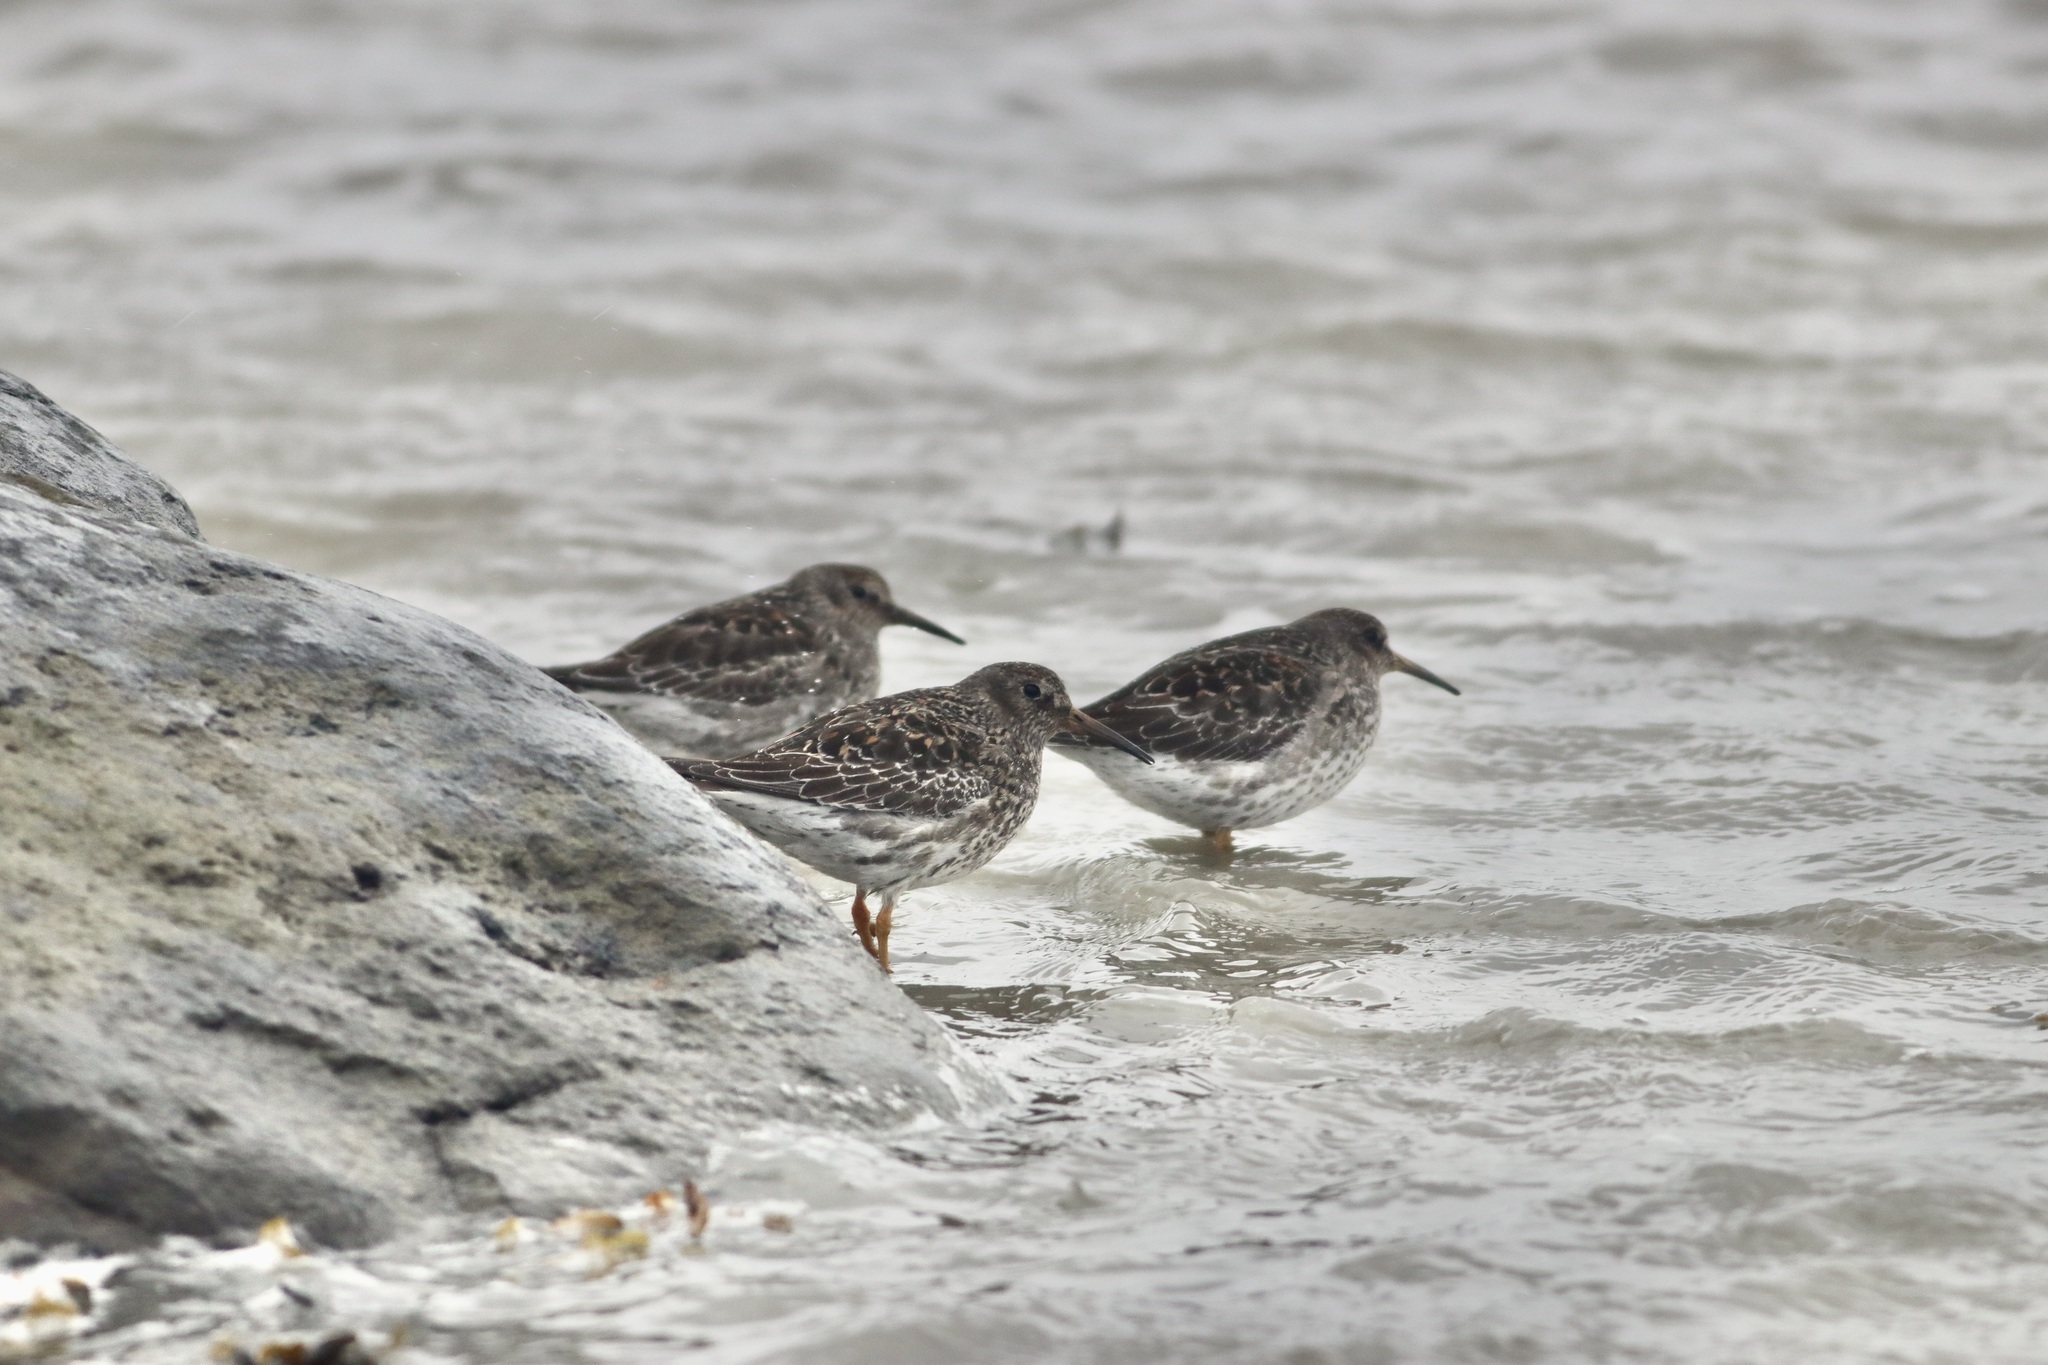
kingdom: Animalia
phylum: Chordata
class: Aves
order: Charadriiformes
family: Scolopacidae
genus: Calidris
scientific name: Calidris maritima
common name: Purple sandpiper
